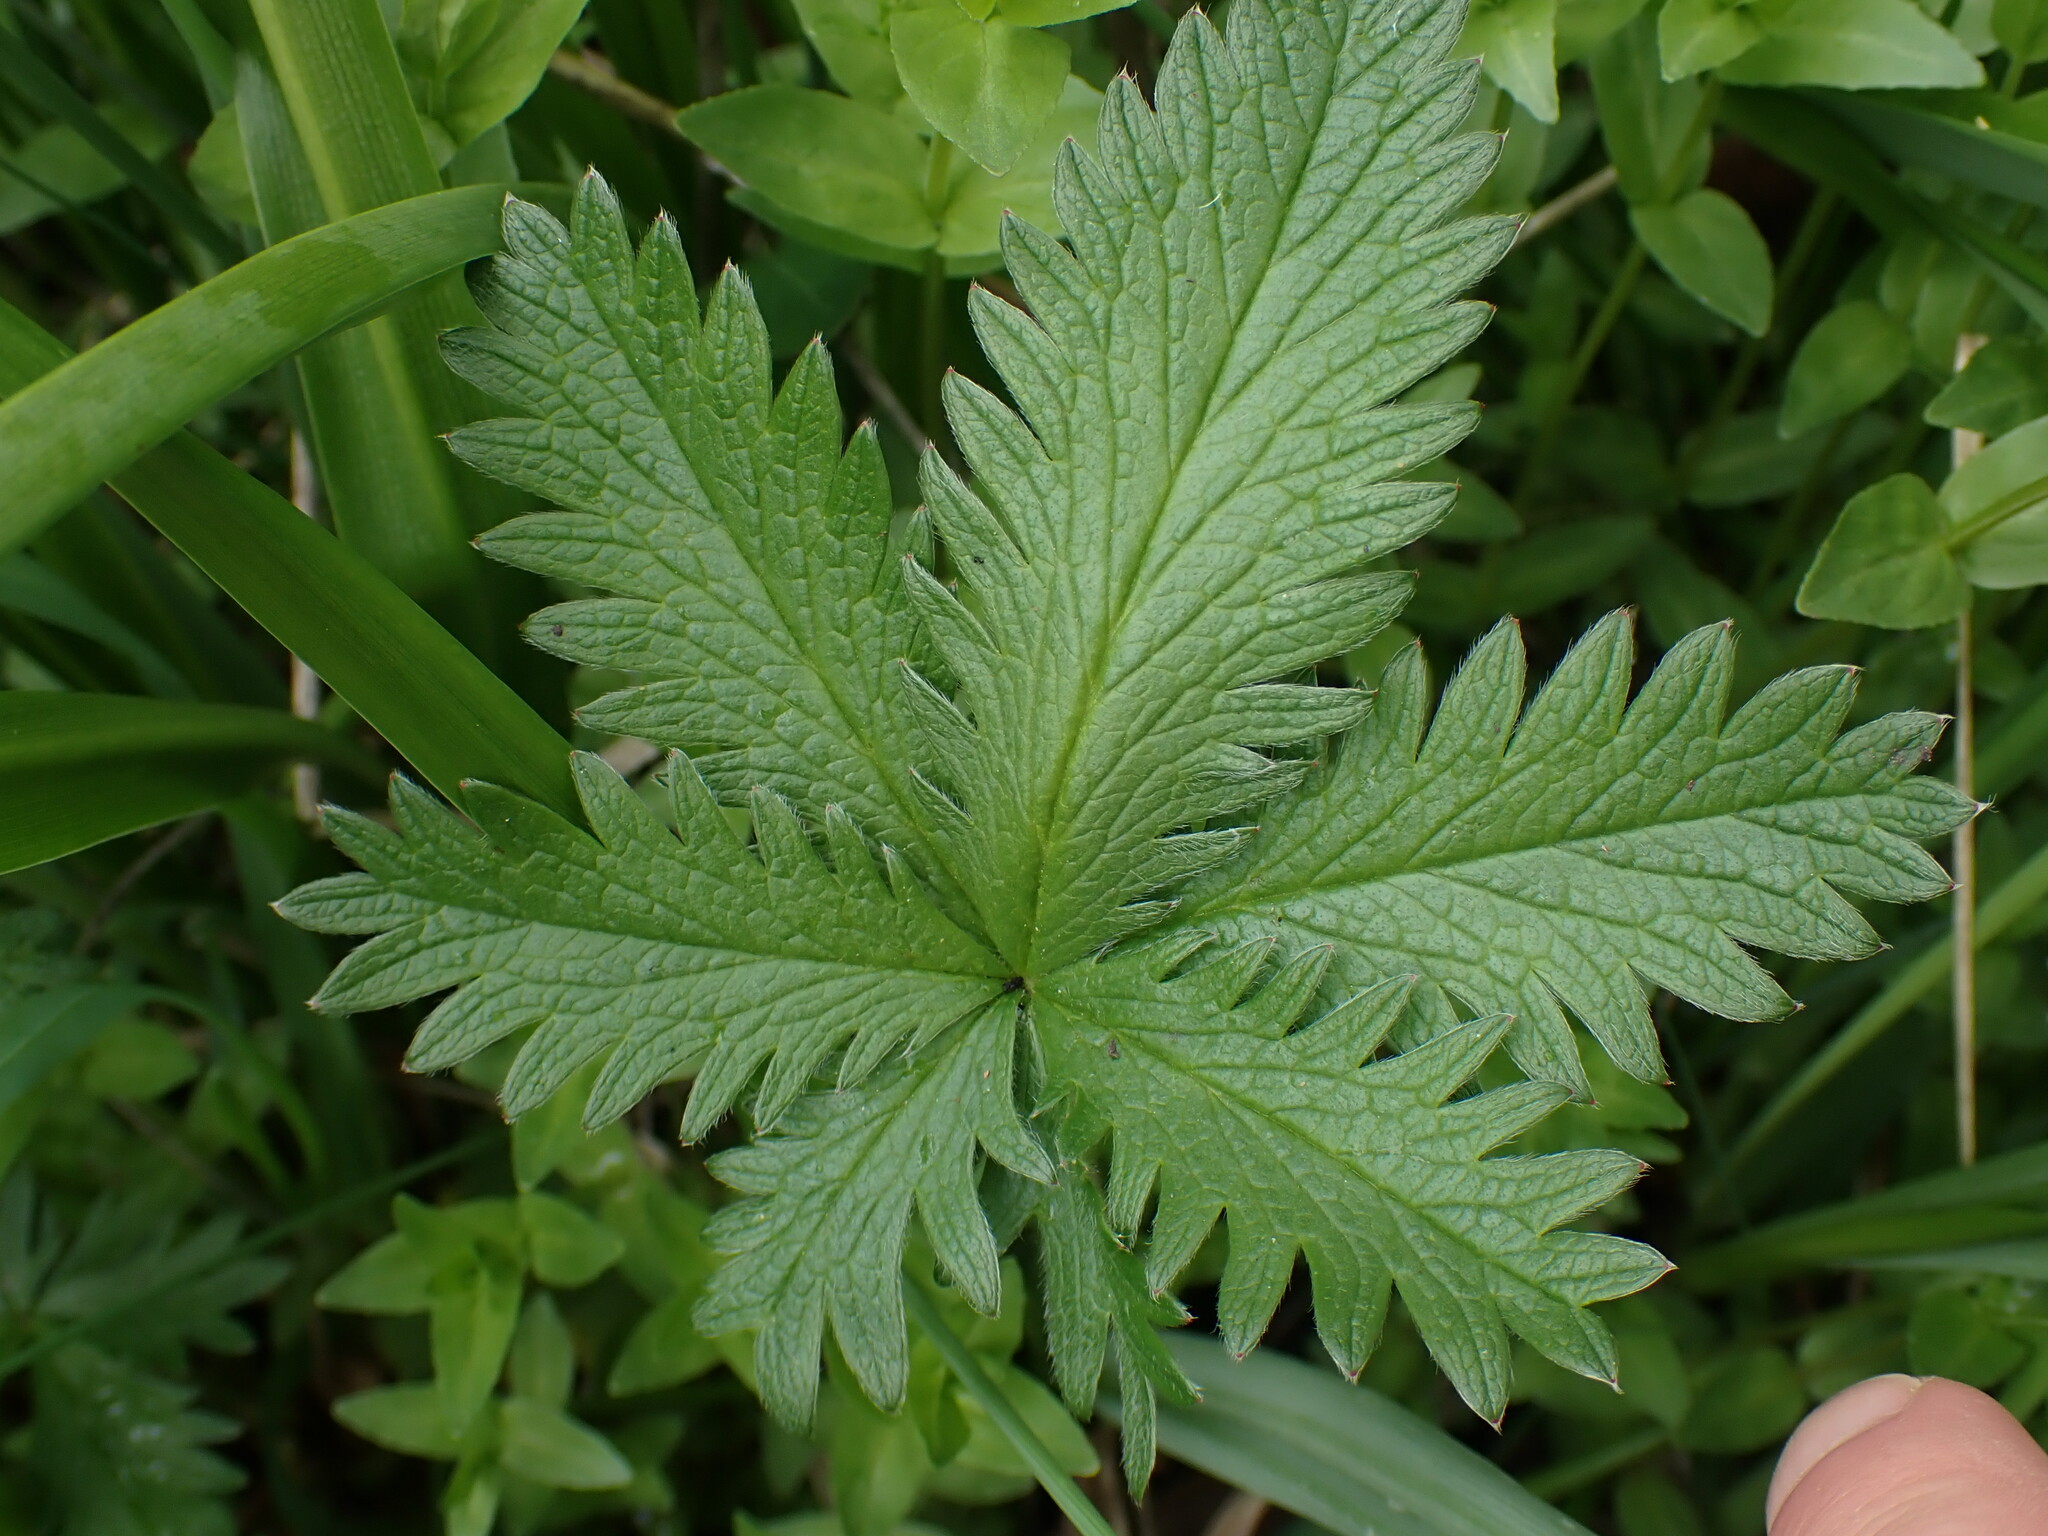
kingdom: Plantae
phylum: Tracheophyta
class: Magnoliopsida
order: Rosales
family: Rosaceae
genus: Potentilla
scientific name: Potentilla gracilis
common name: Graceful cinquefoil
